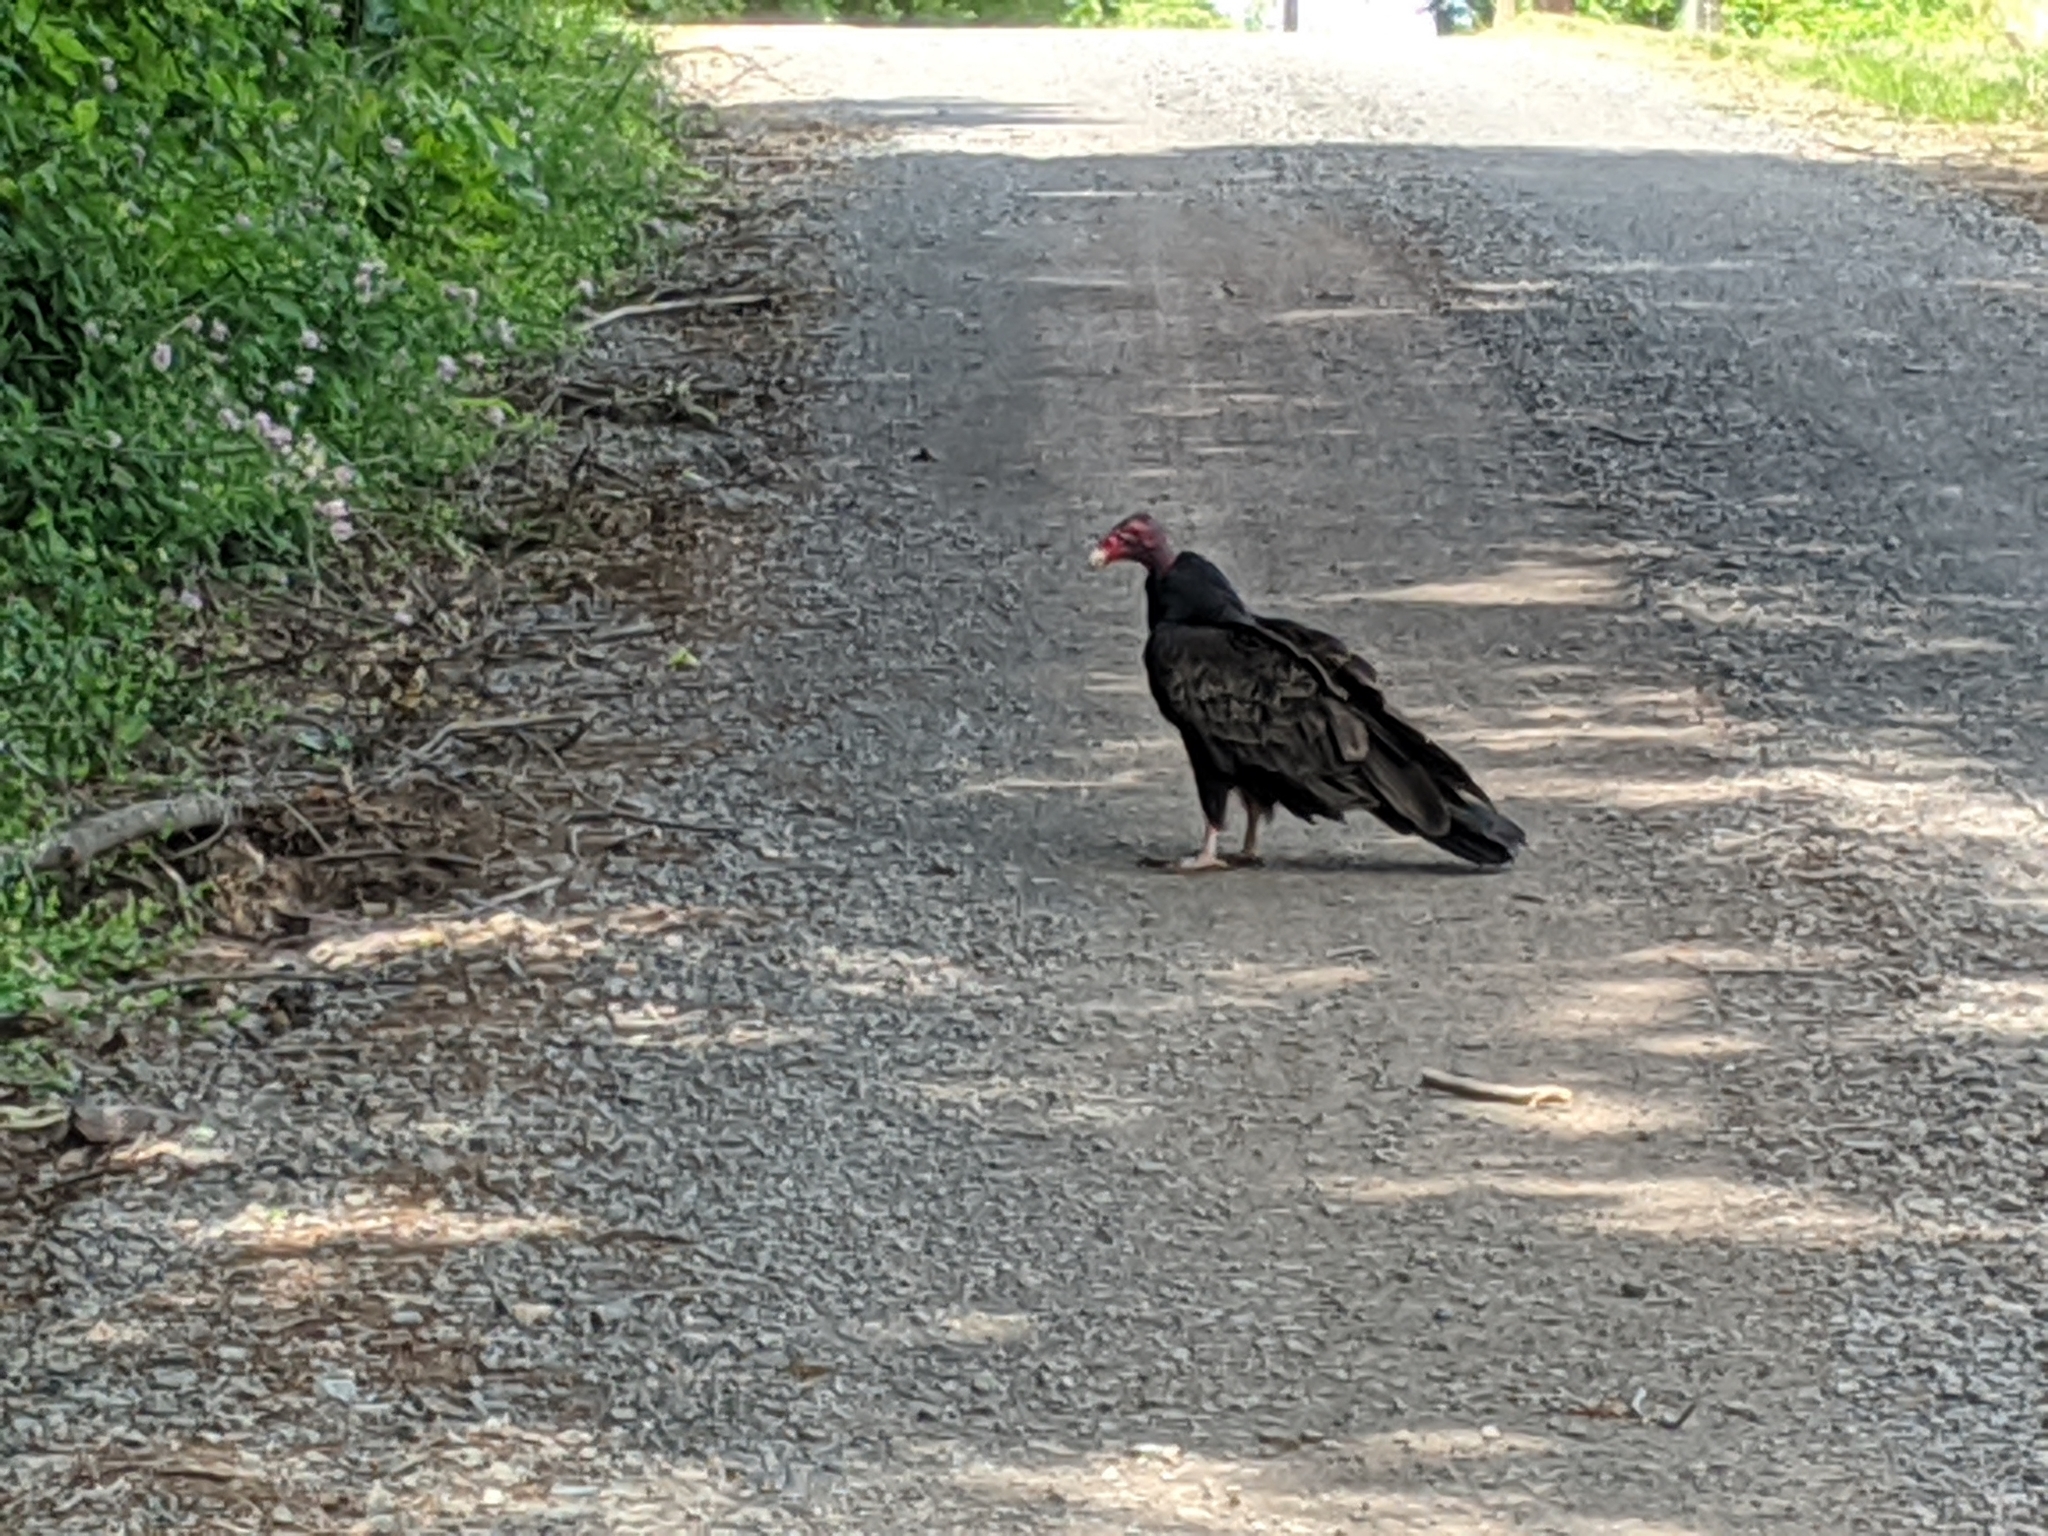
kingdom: Animalia
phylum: Chordata
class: Aves
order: Accipitriformes
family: Cathartidae
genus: Cathartes
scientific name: Cathartes aura
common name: Turkey vulture
